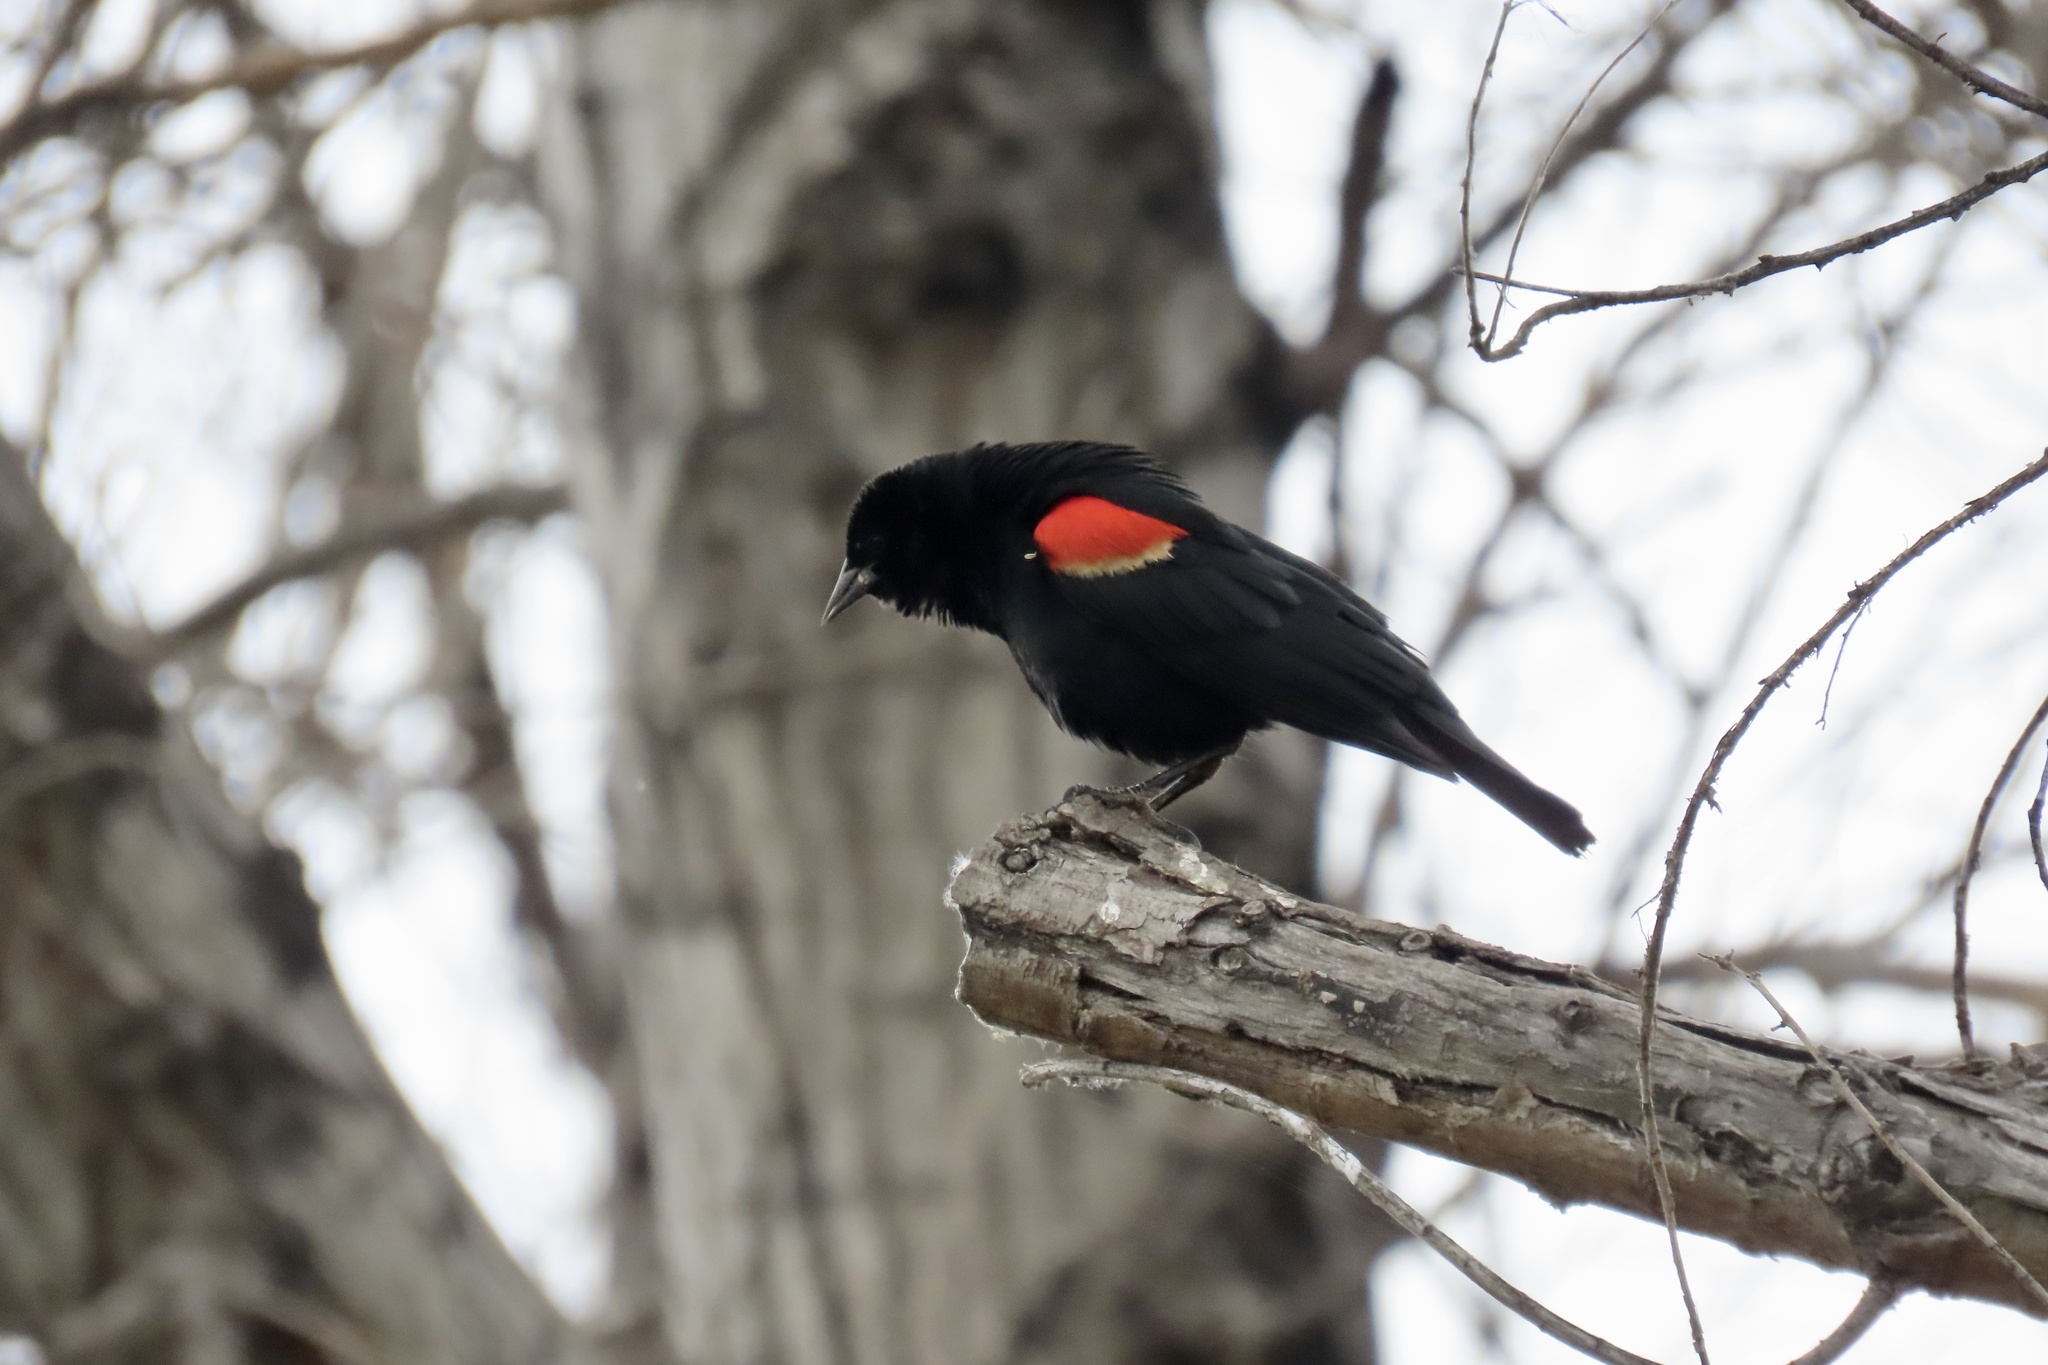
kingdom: Animalia
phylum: Chordata
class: Aves
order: Passeriformes
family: Icteridae
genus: Agelaius
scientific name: Agelaius phoeniceus
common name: Red-winged blackbird
